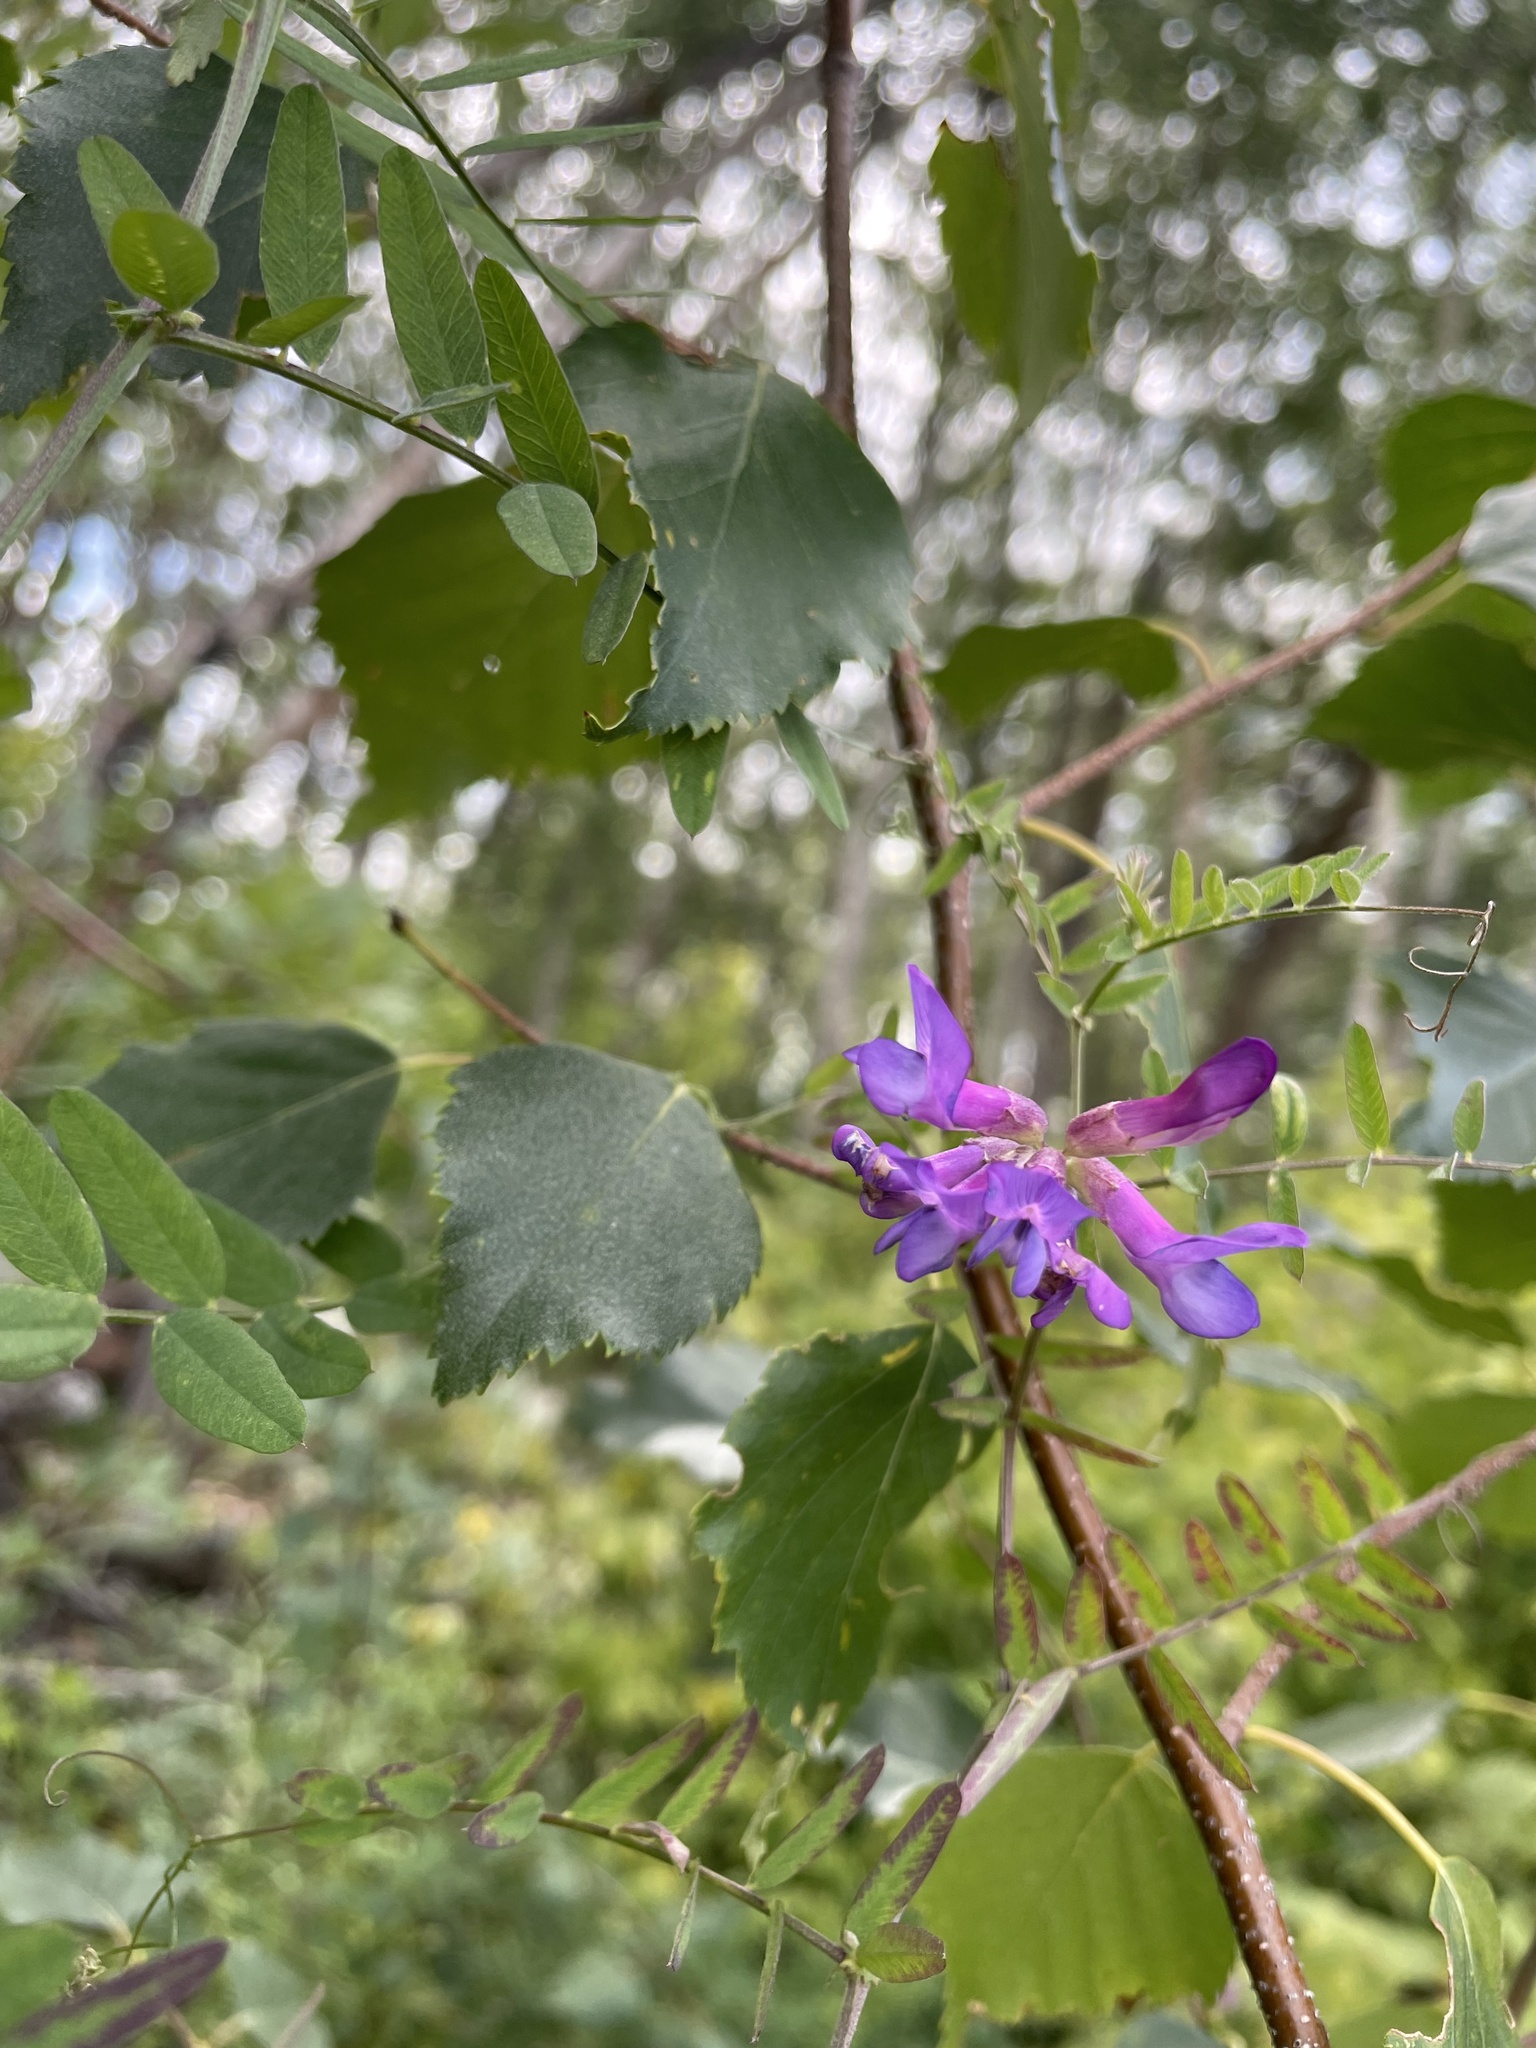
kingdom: Plantae
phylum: Tracheophyta
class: Magnoliopsida
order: Fabales
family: Fabaceae
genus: Vicia
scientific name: Vicia americana
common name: American vetch
